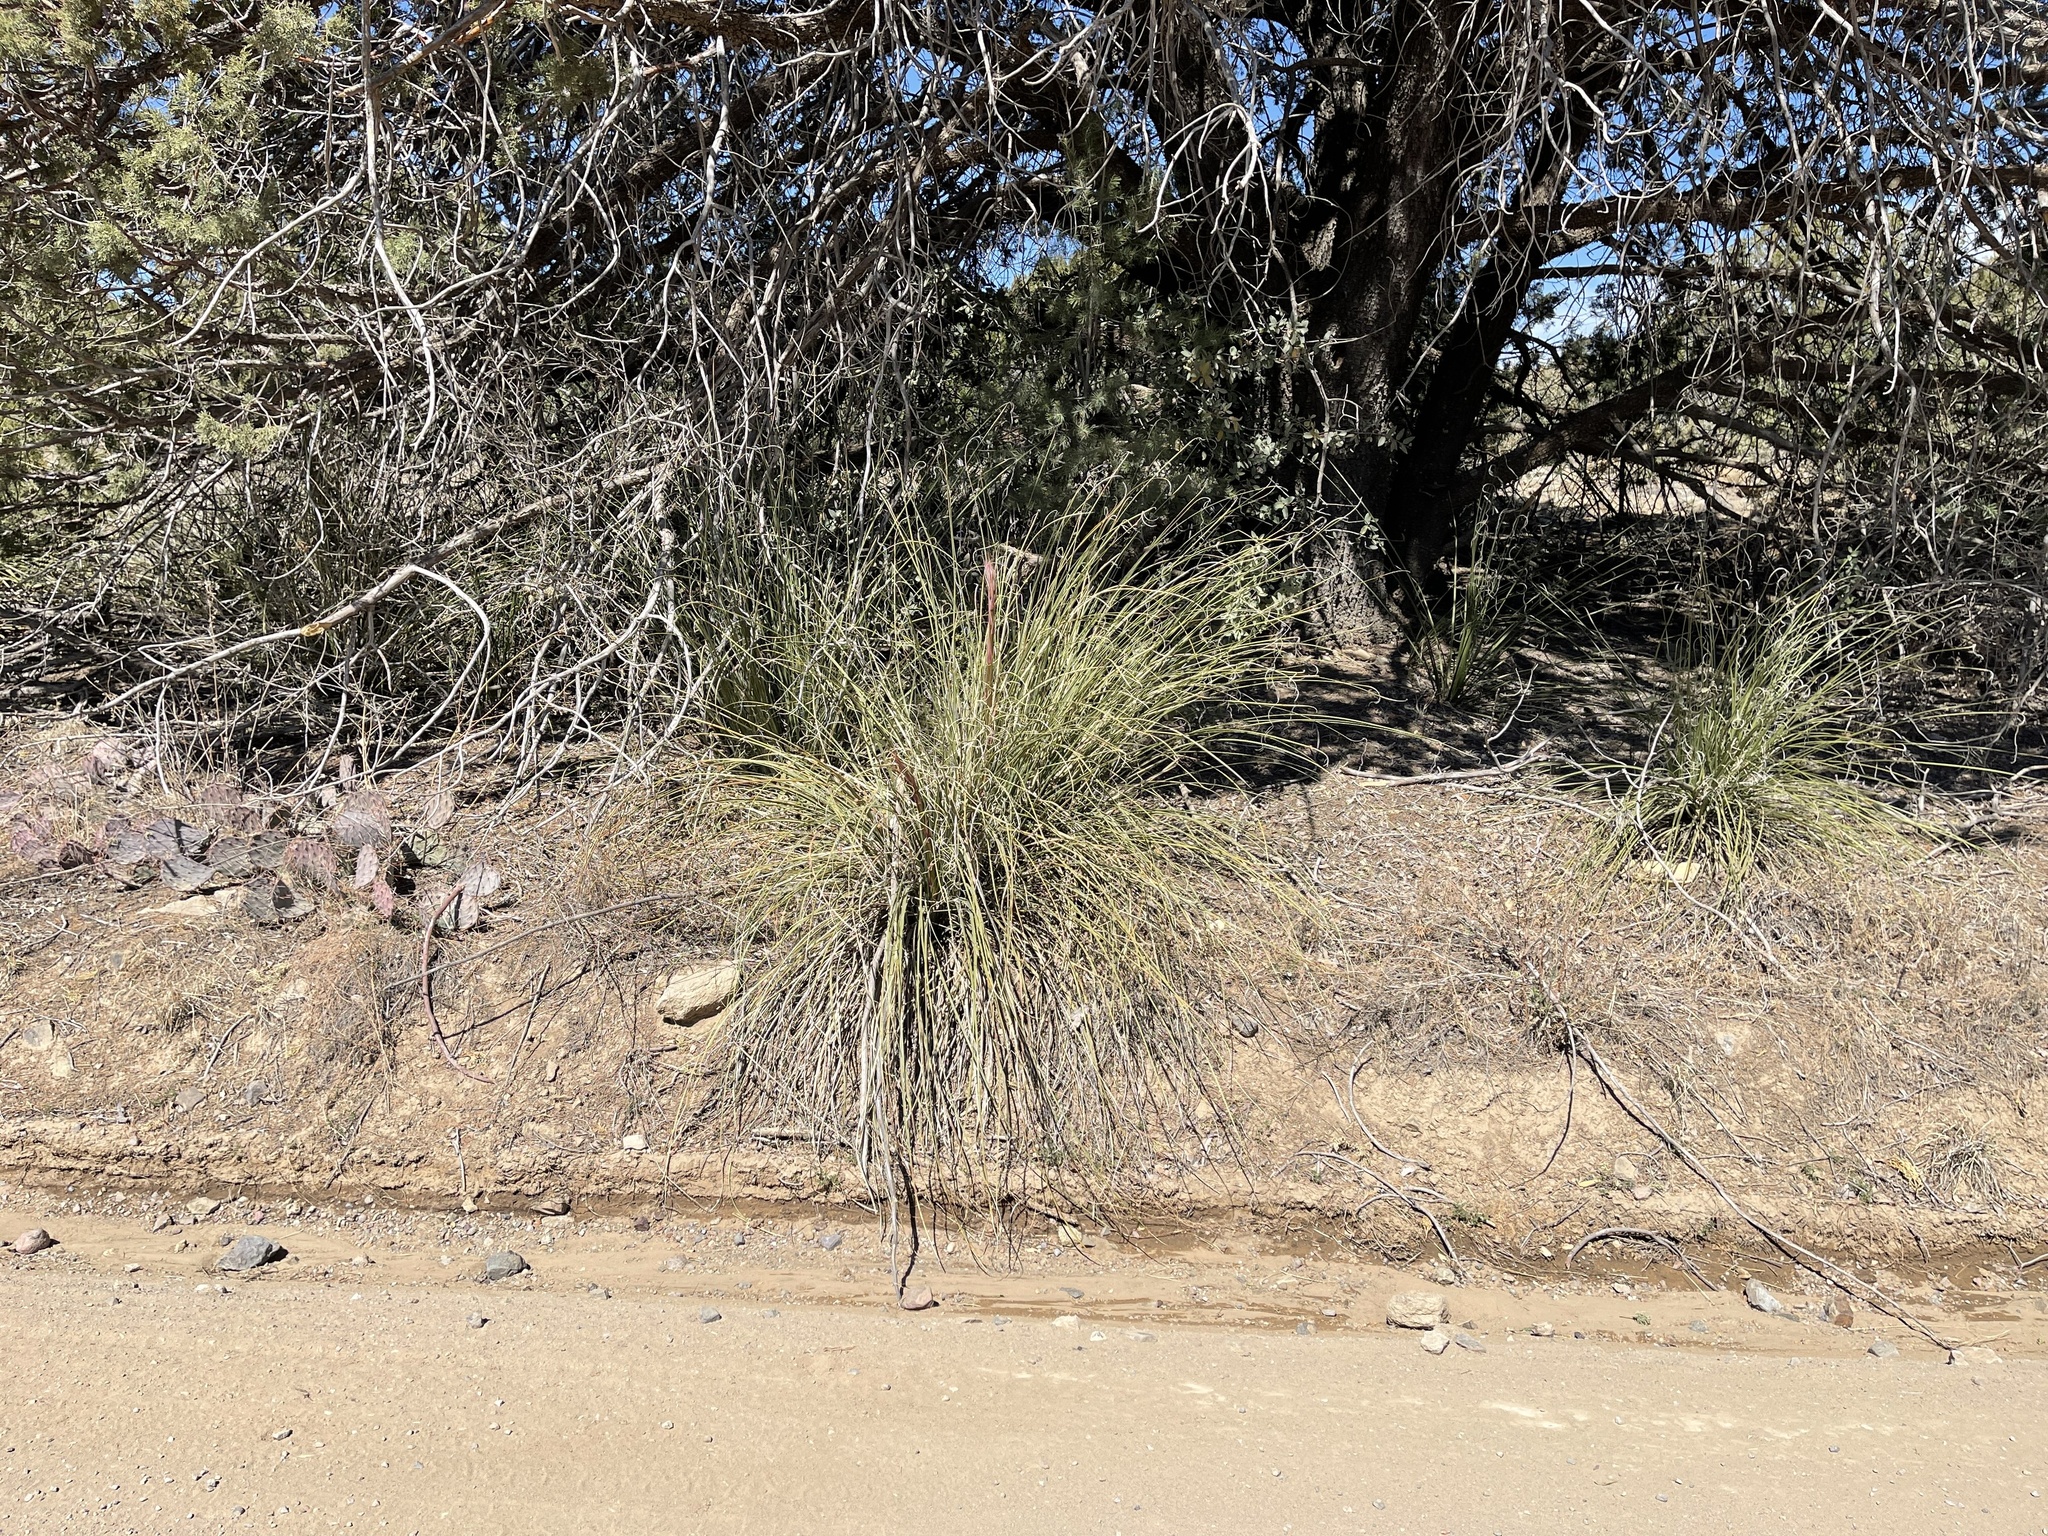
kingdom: Plantae
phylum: Tracheophyta
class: Liliopsida
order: Asparagales
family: Asparagaceae
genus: Nolina
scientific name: Nolina microcarpa
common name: Bear-grass
